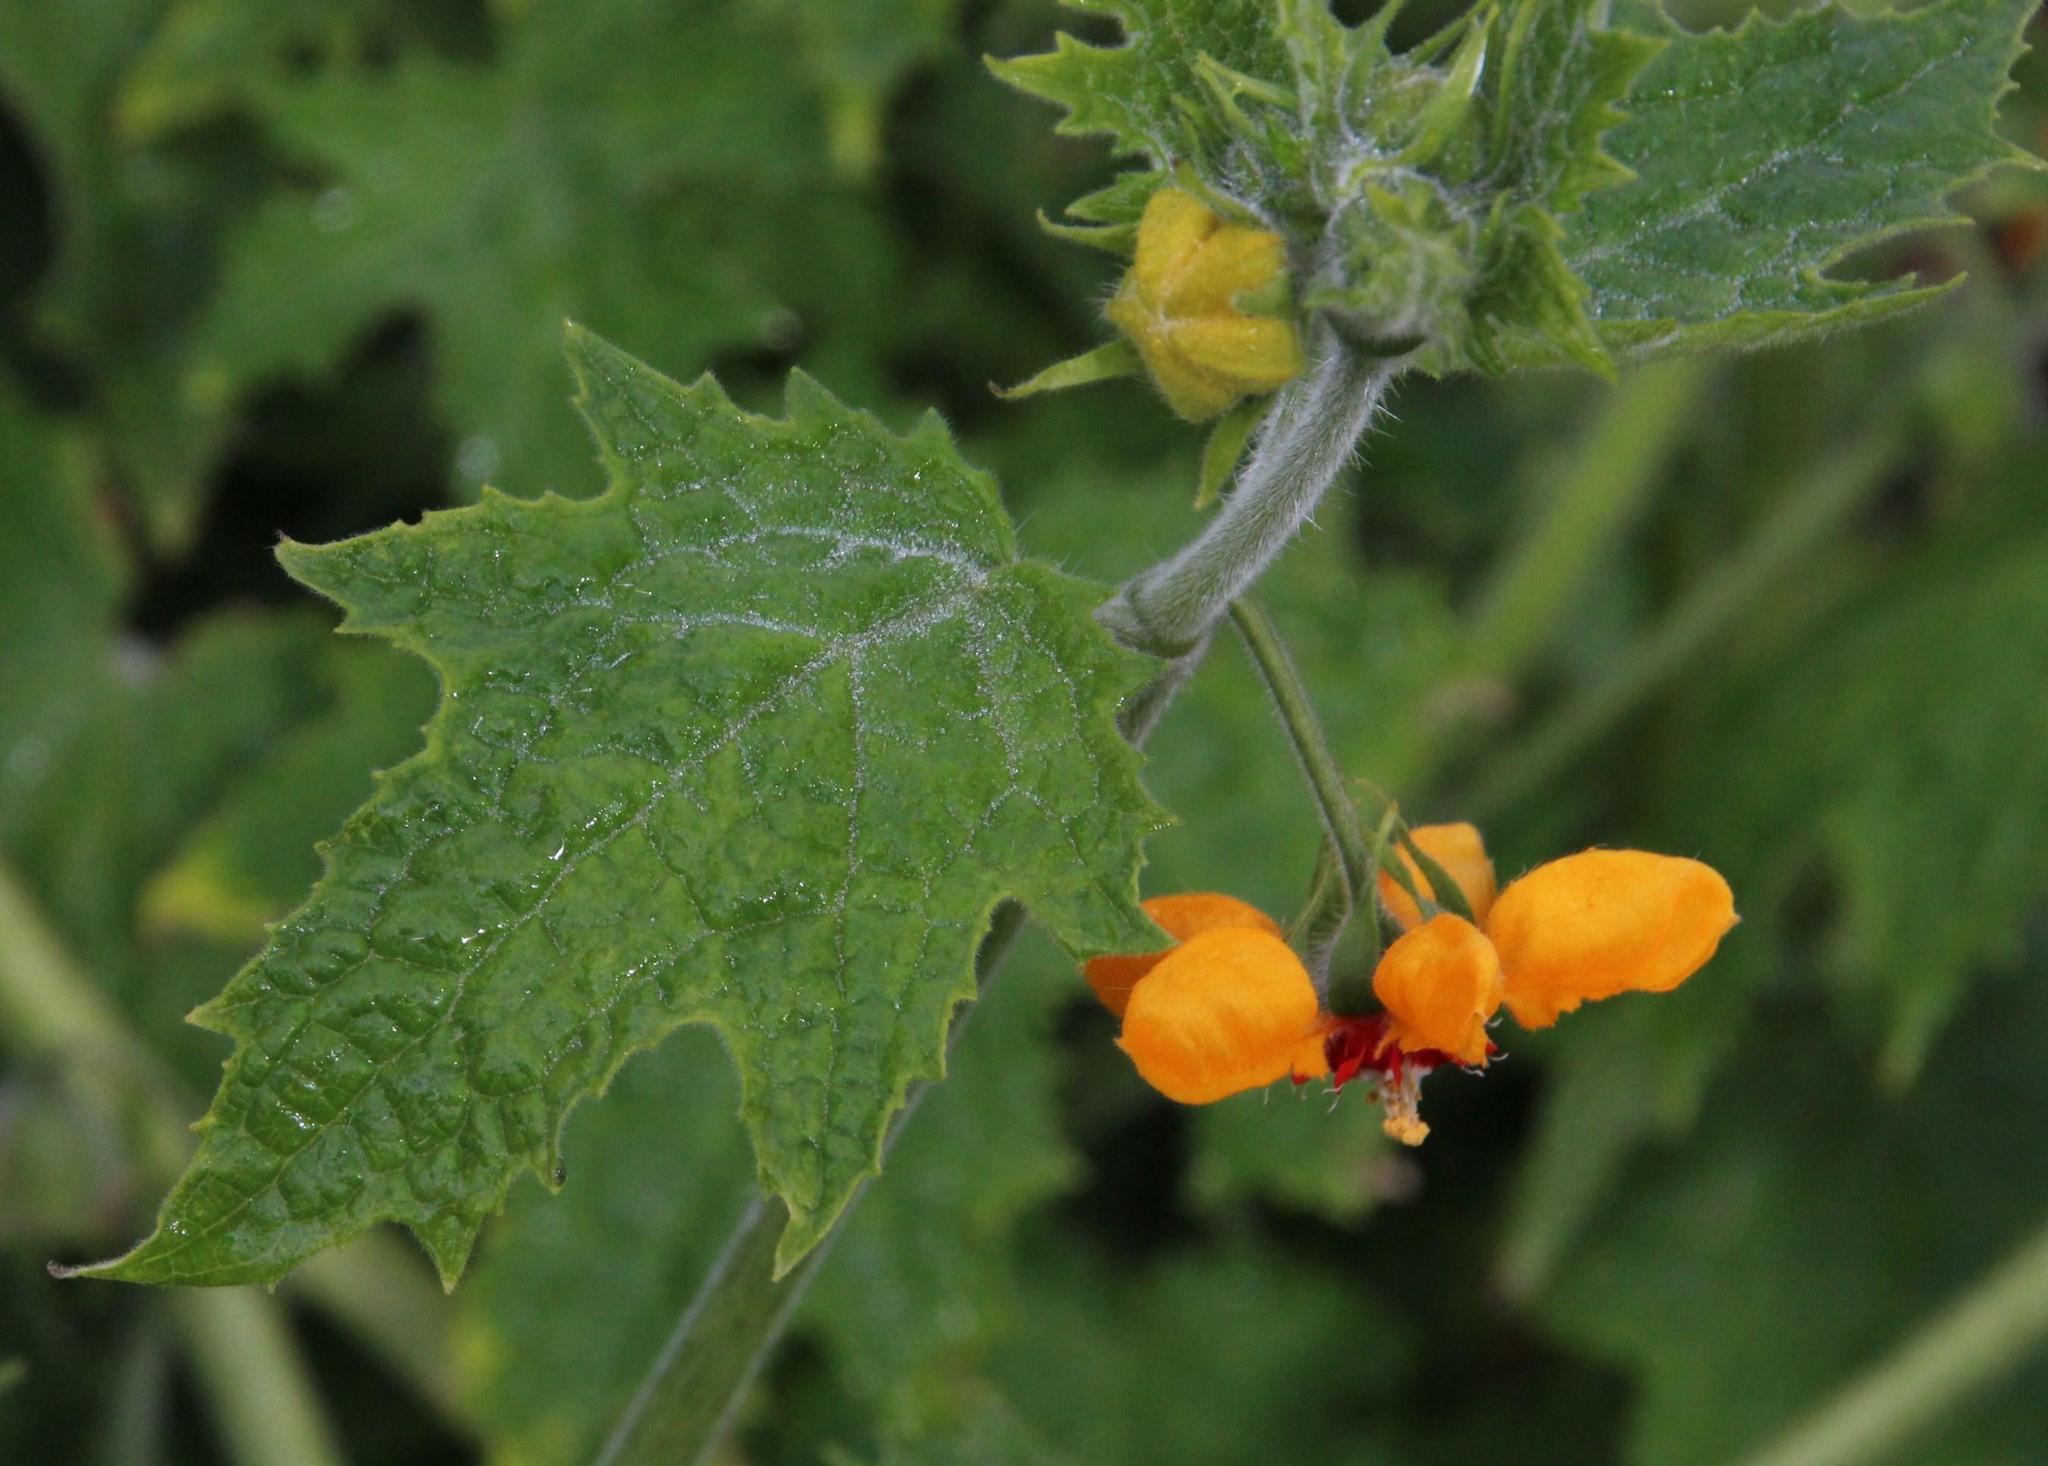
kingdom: Plantae
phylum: Tracheophyta
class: Magnoliopsida
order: Cornales
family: Loasaceae
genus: Loasa
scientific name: Loasa acerifolia
